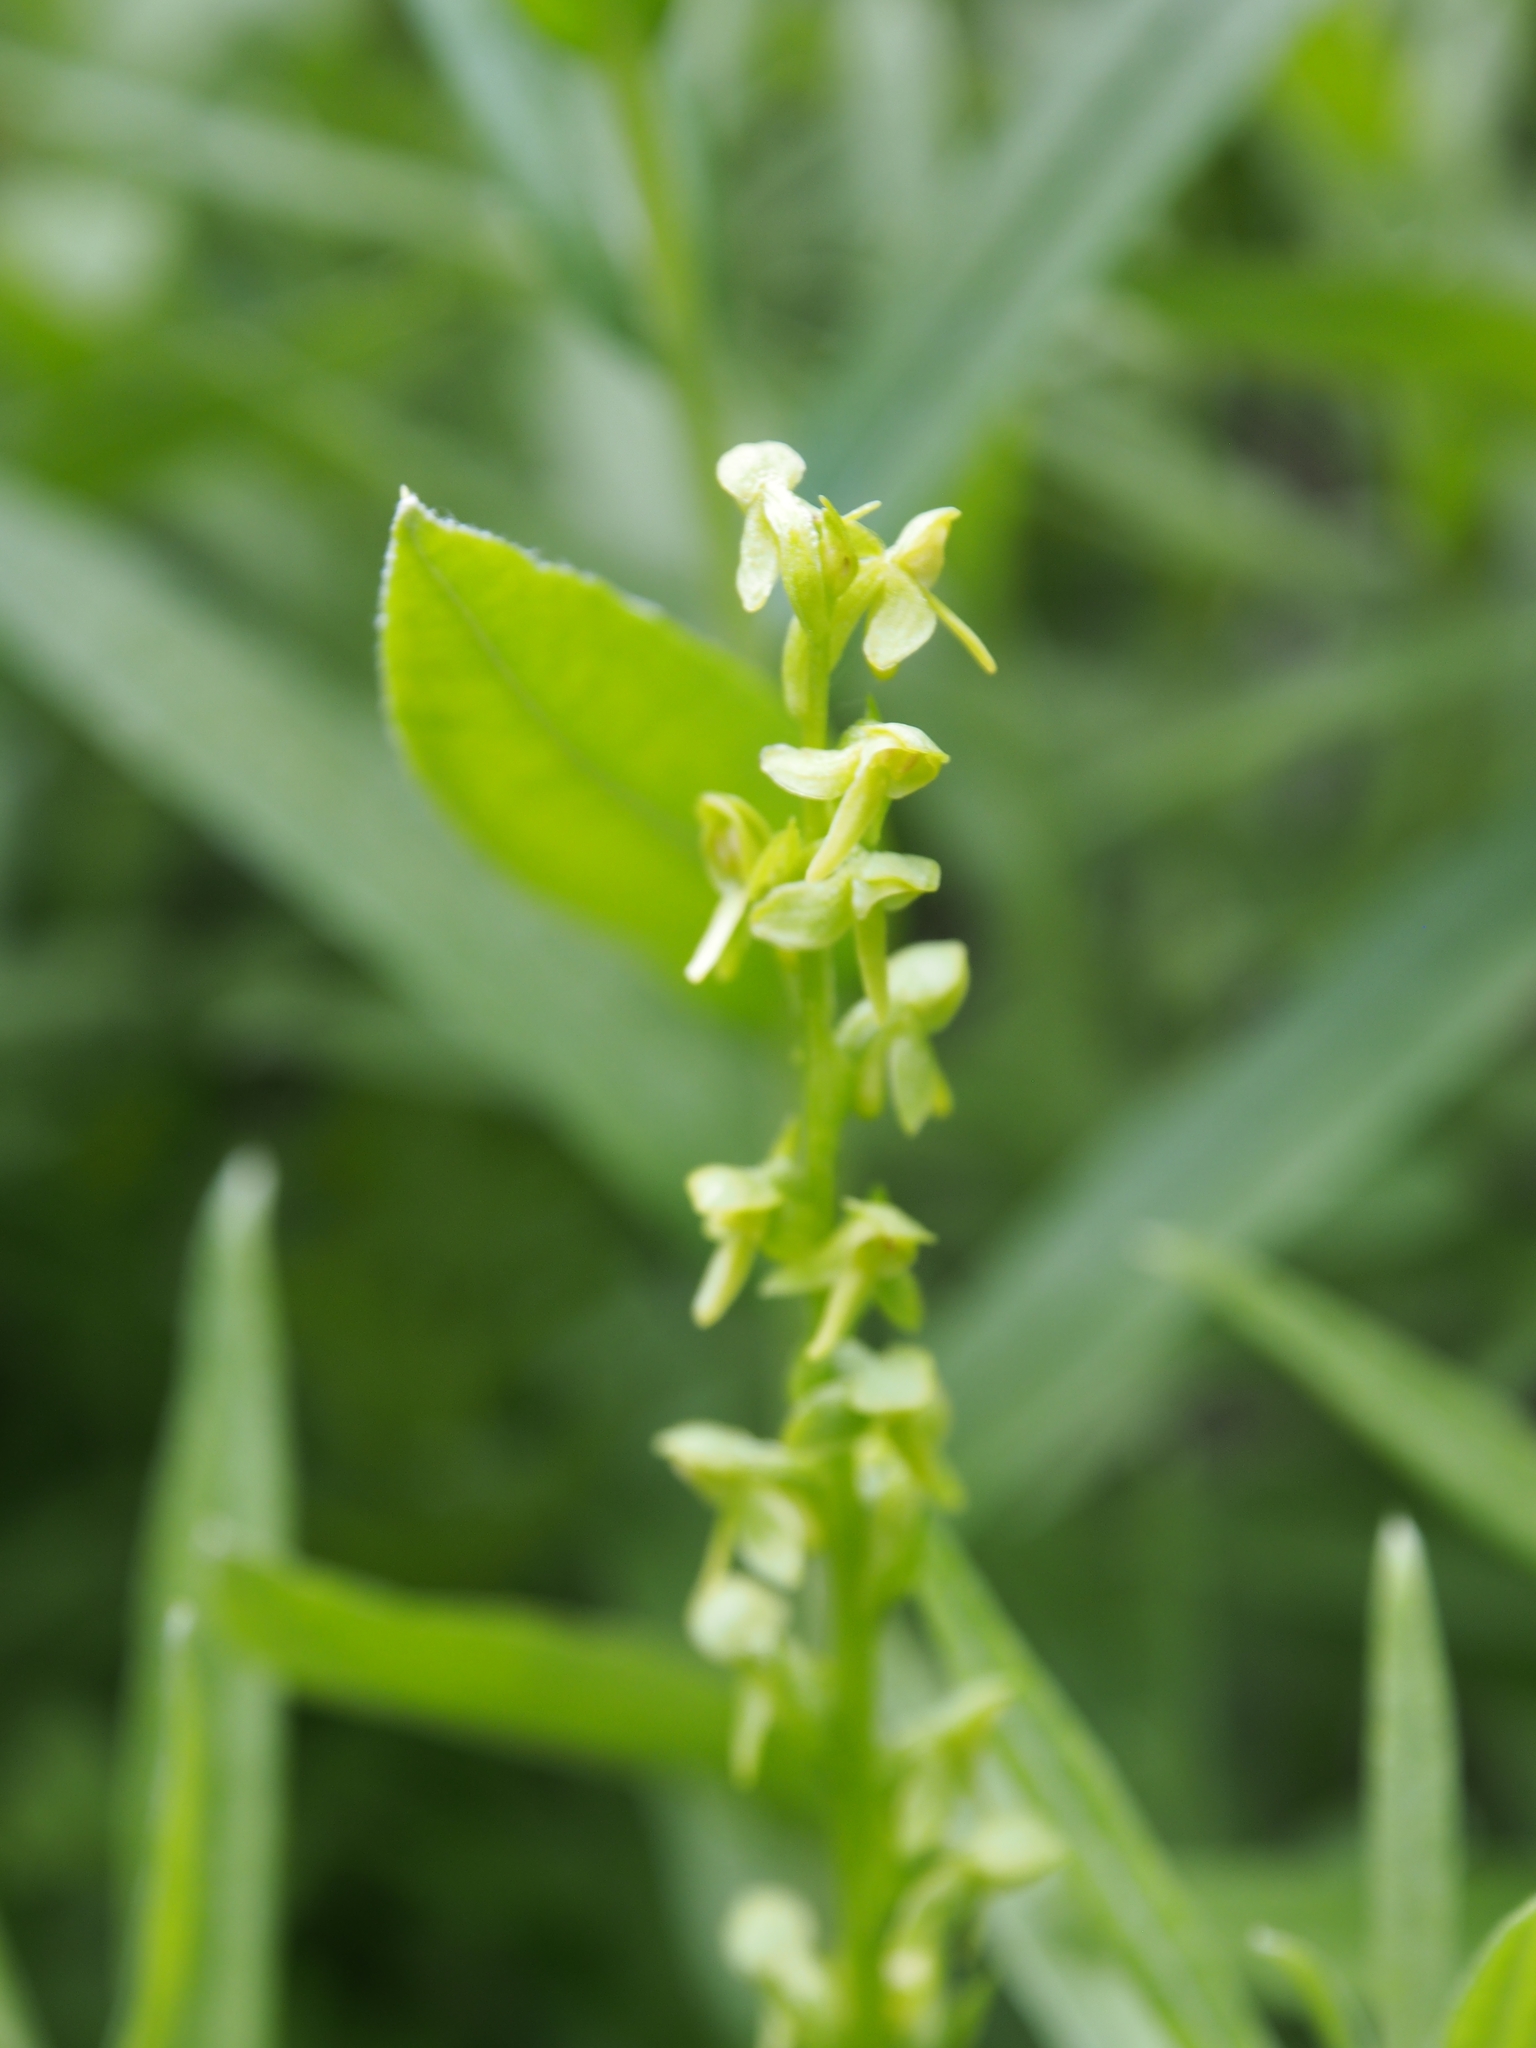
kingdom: Plantae
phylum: Tracheophyta
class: Liliopsida
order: Asparagales
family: Orchidaceae
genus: Platanthera
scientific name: Platanthera stricta
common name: Slender bog orchid
